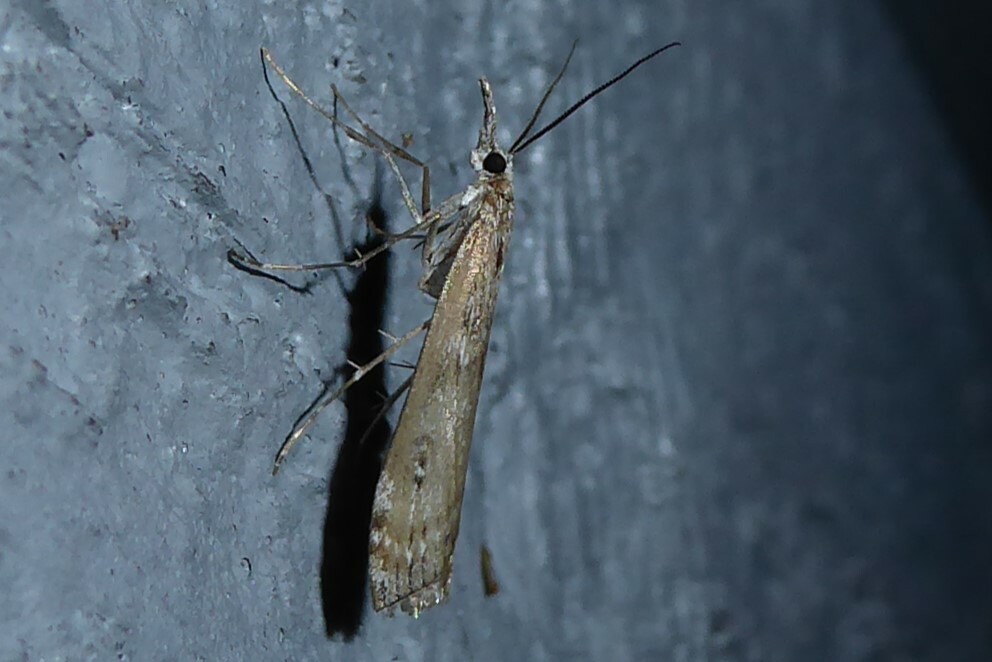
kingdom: Animalia
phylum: Arthropoda
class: Insecta
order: Lepidoptera
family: Crambidae
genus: Orocrambus
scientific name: Orocrambus cyclopicus
